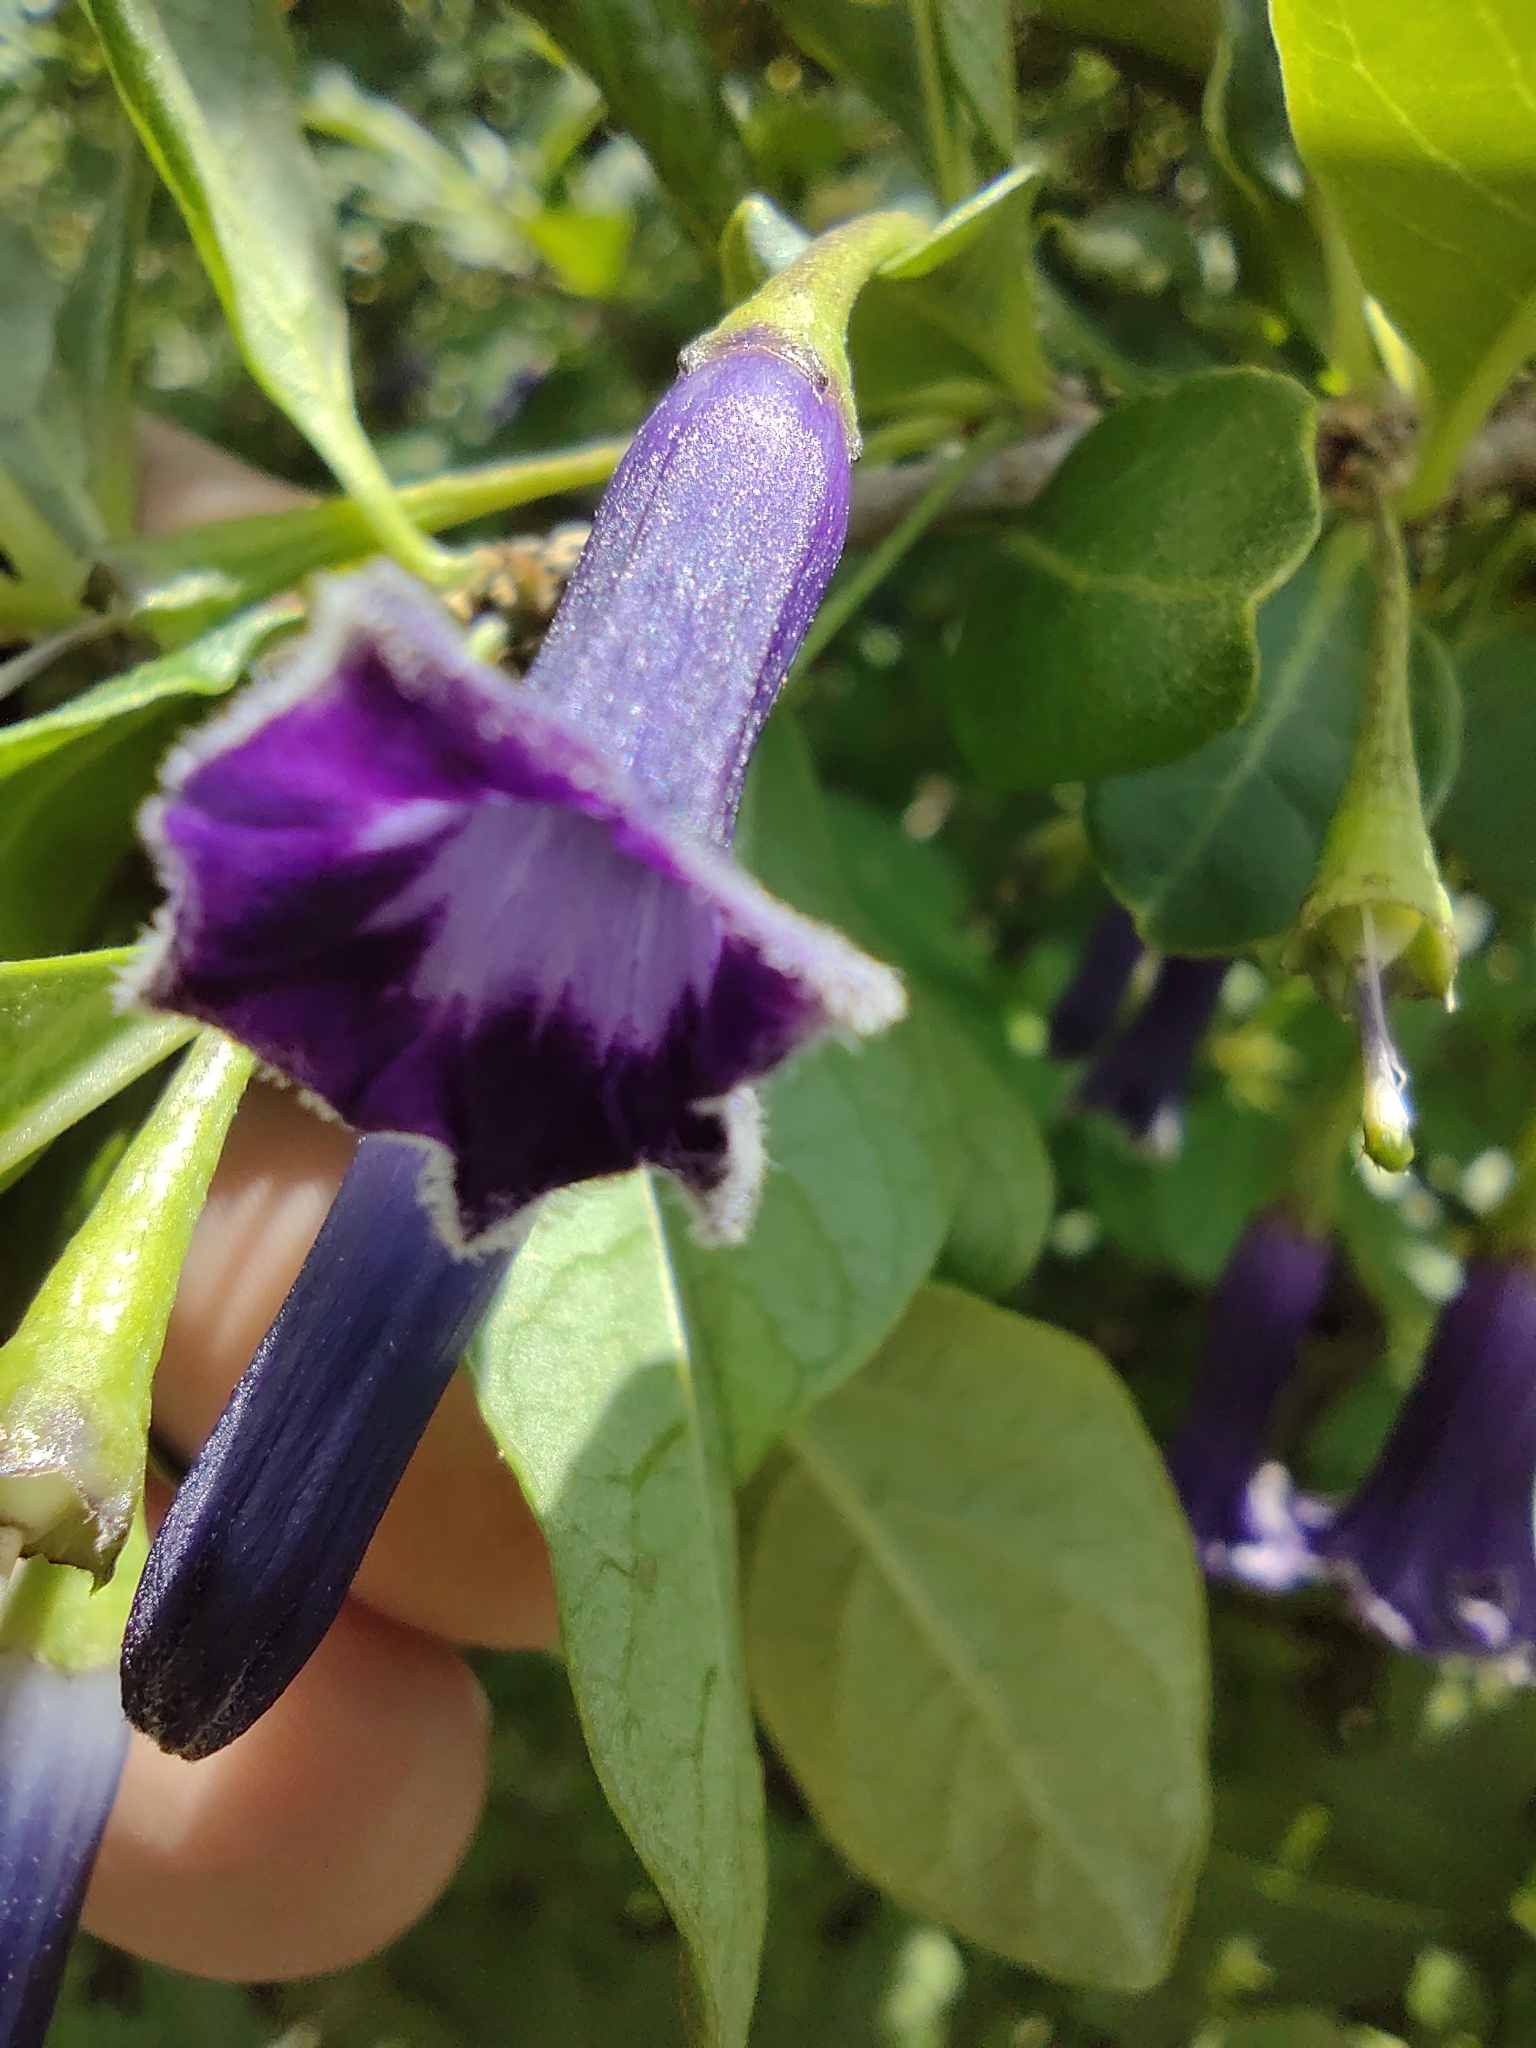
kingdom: Plantae
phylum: Tracheophyta
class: Magnoliopsida
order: Solanales
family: Solanaceae
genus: Eriolarynx
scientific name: Eriolarynx australis
